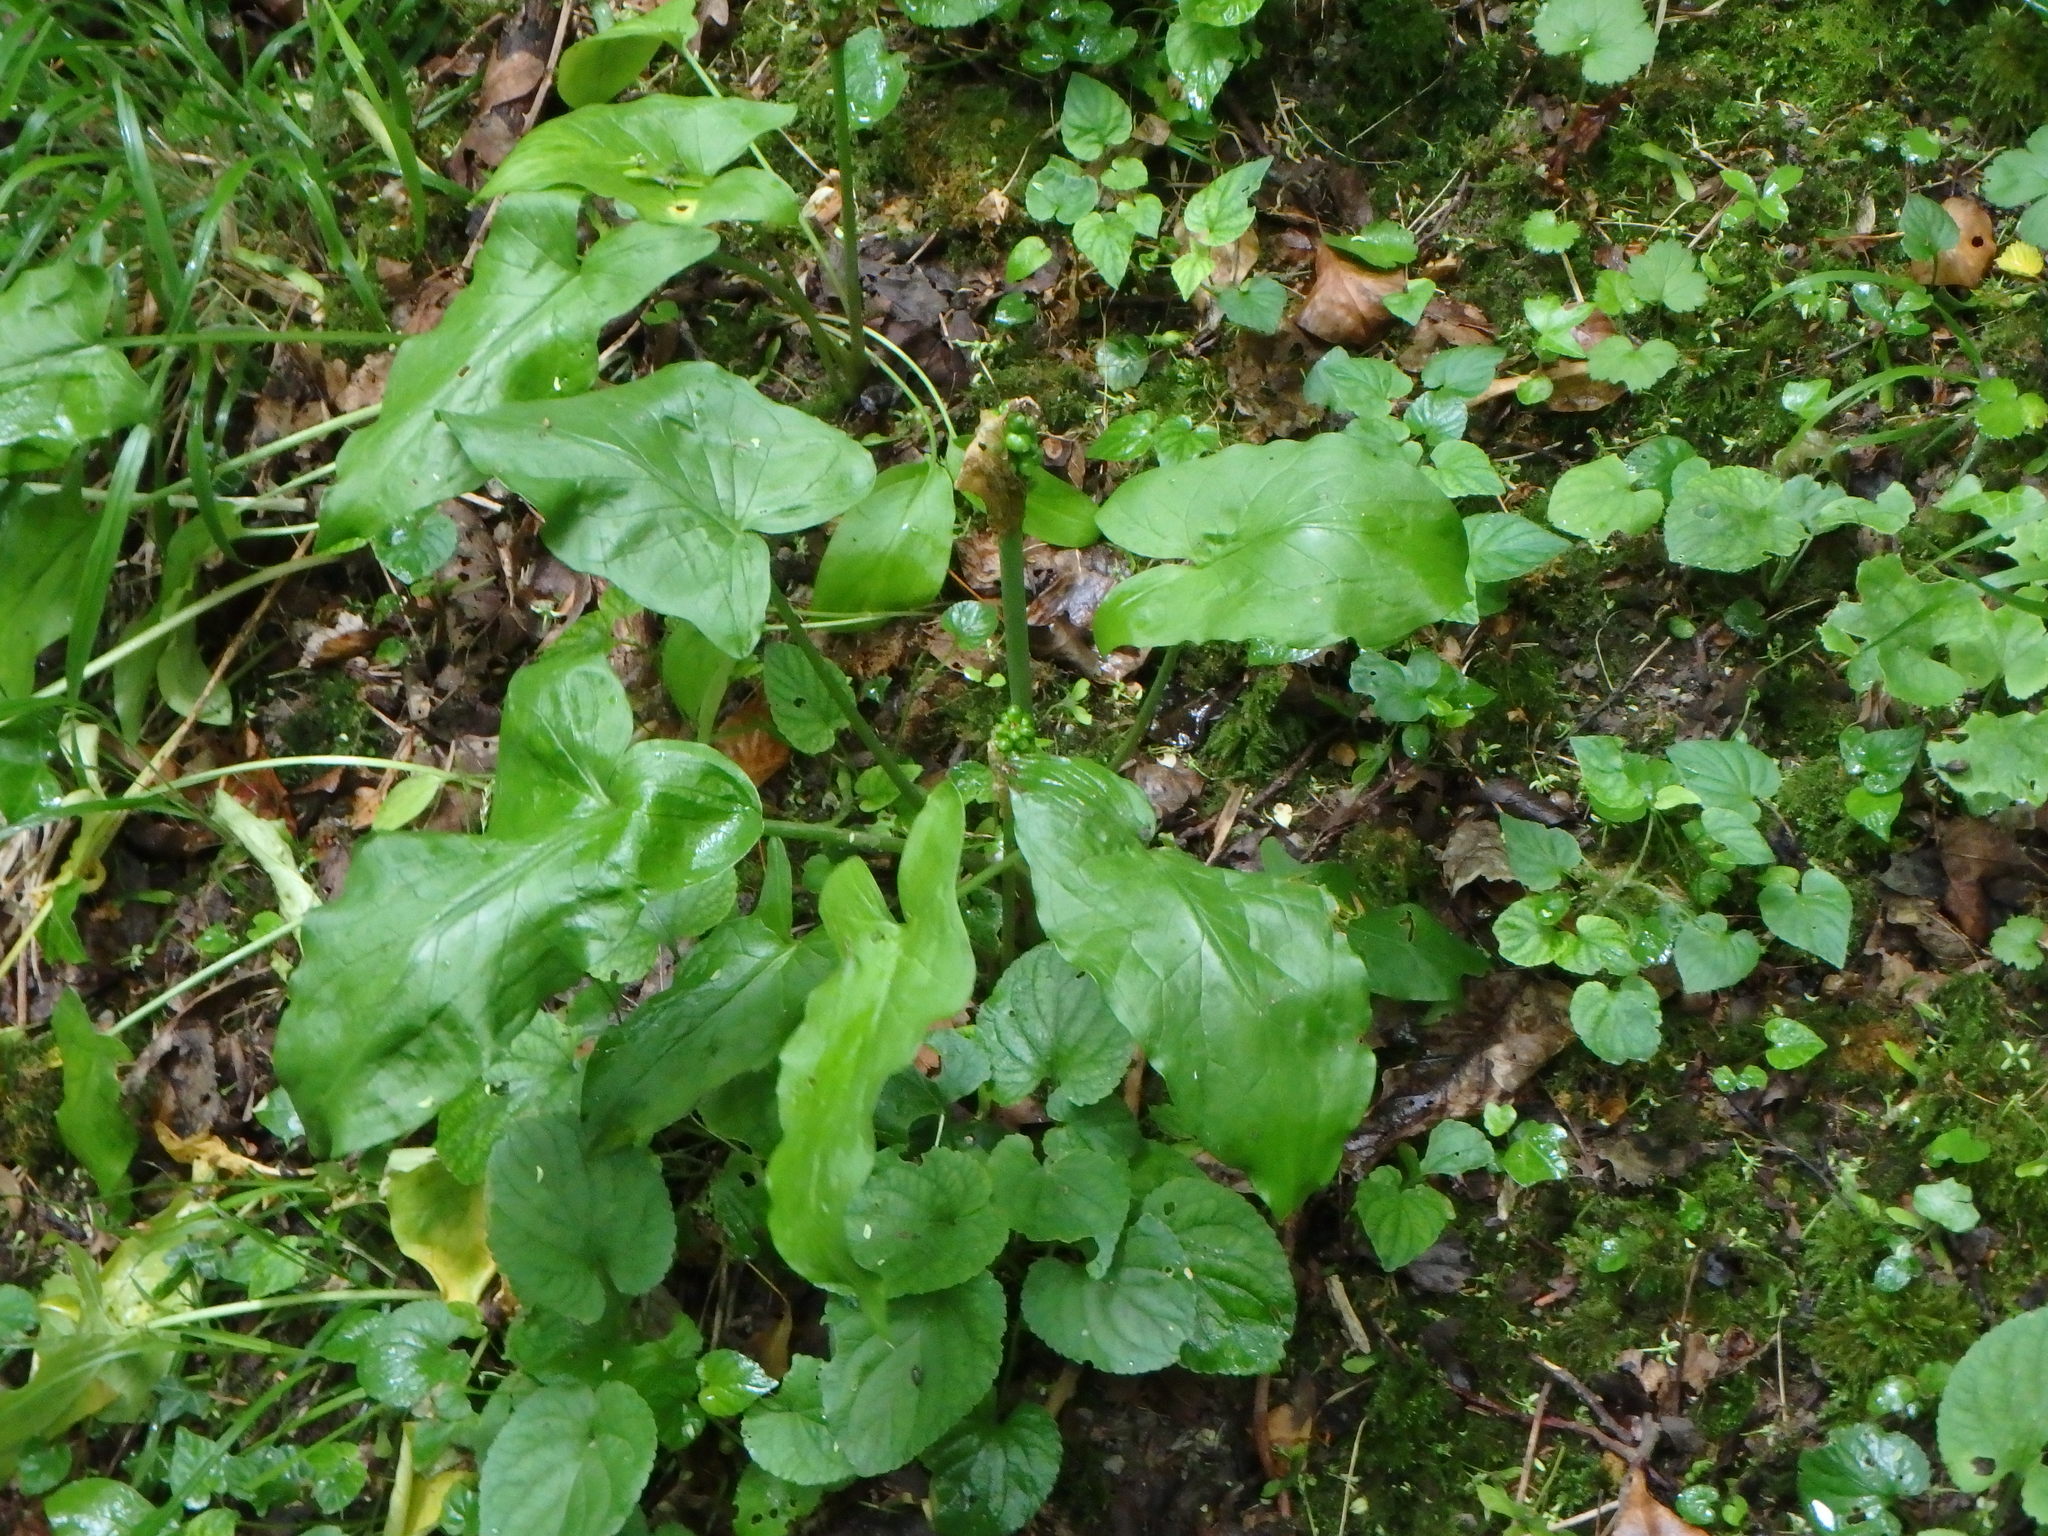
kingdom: Plantae
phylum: Tracheophyta
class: Liliopsida
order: Alismatales
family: Araceae
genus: Arum
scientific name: Arum maculatum
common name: Lords-and-ladies
